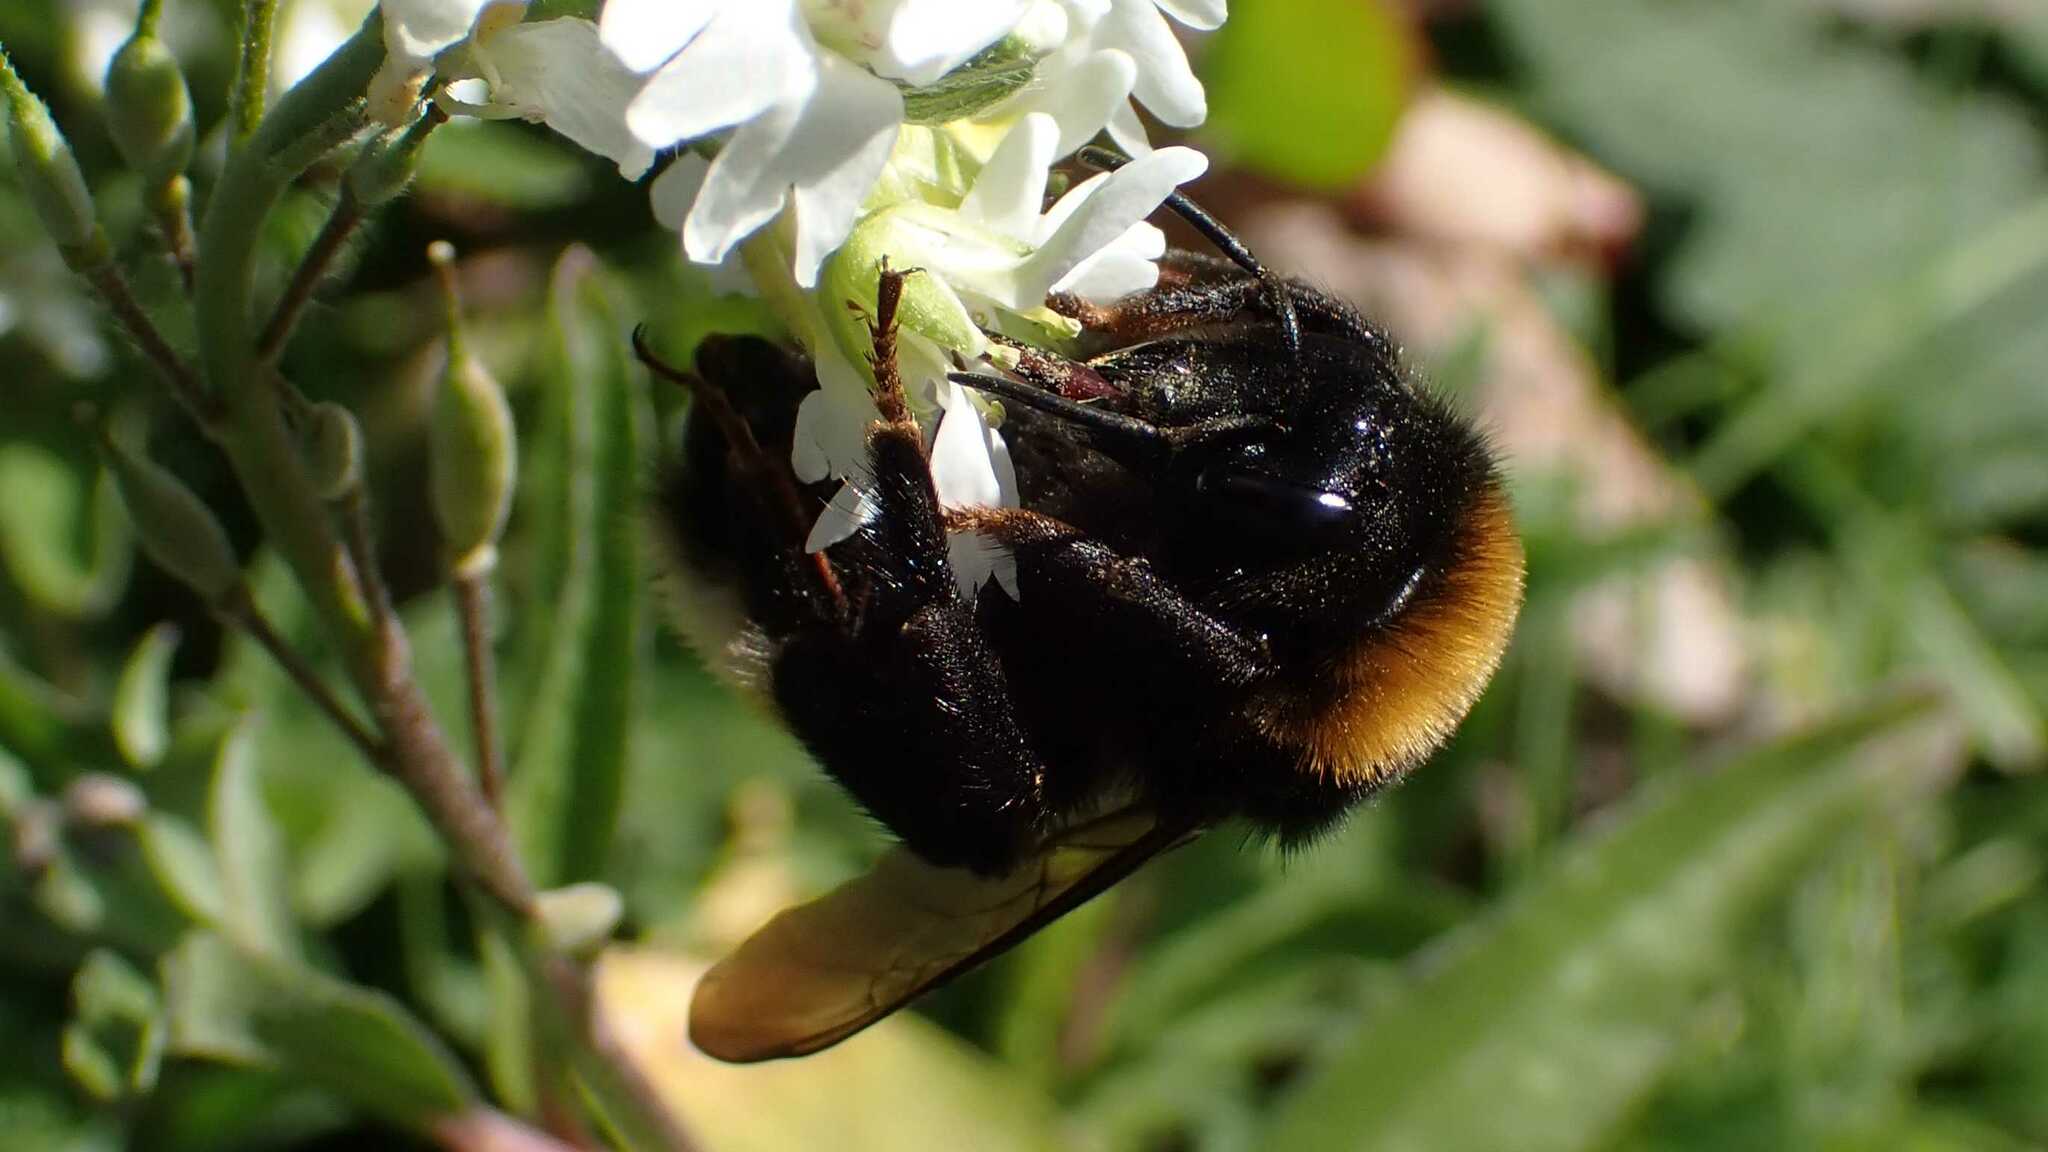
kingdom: Animalia
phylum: Arthropoda
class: Insecta
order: Hymenoptera
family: Apidae
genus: Bombus
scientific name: Bombus vestalis
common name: Vestal cuckoo bee
